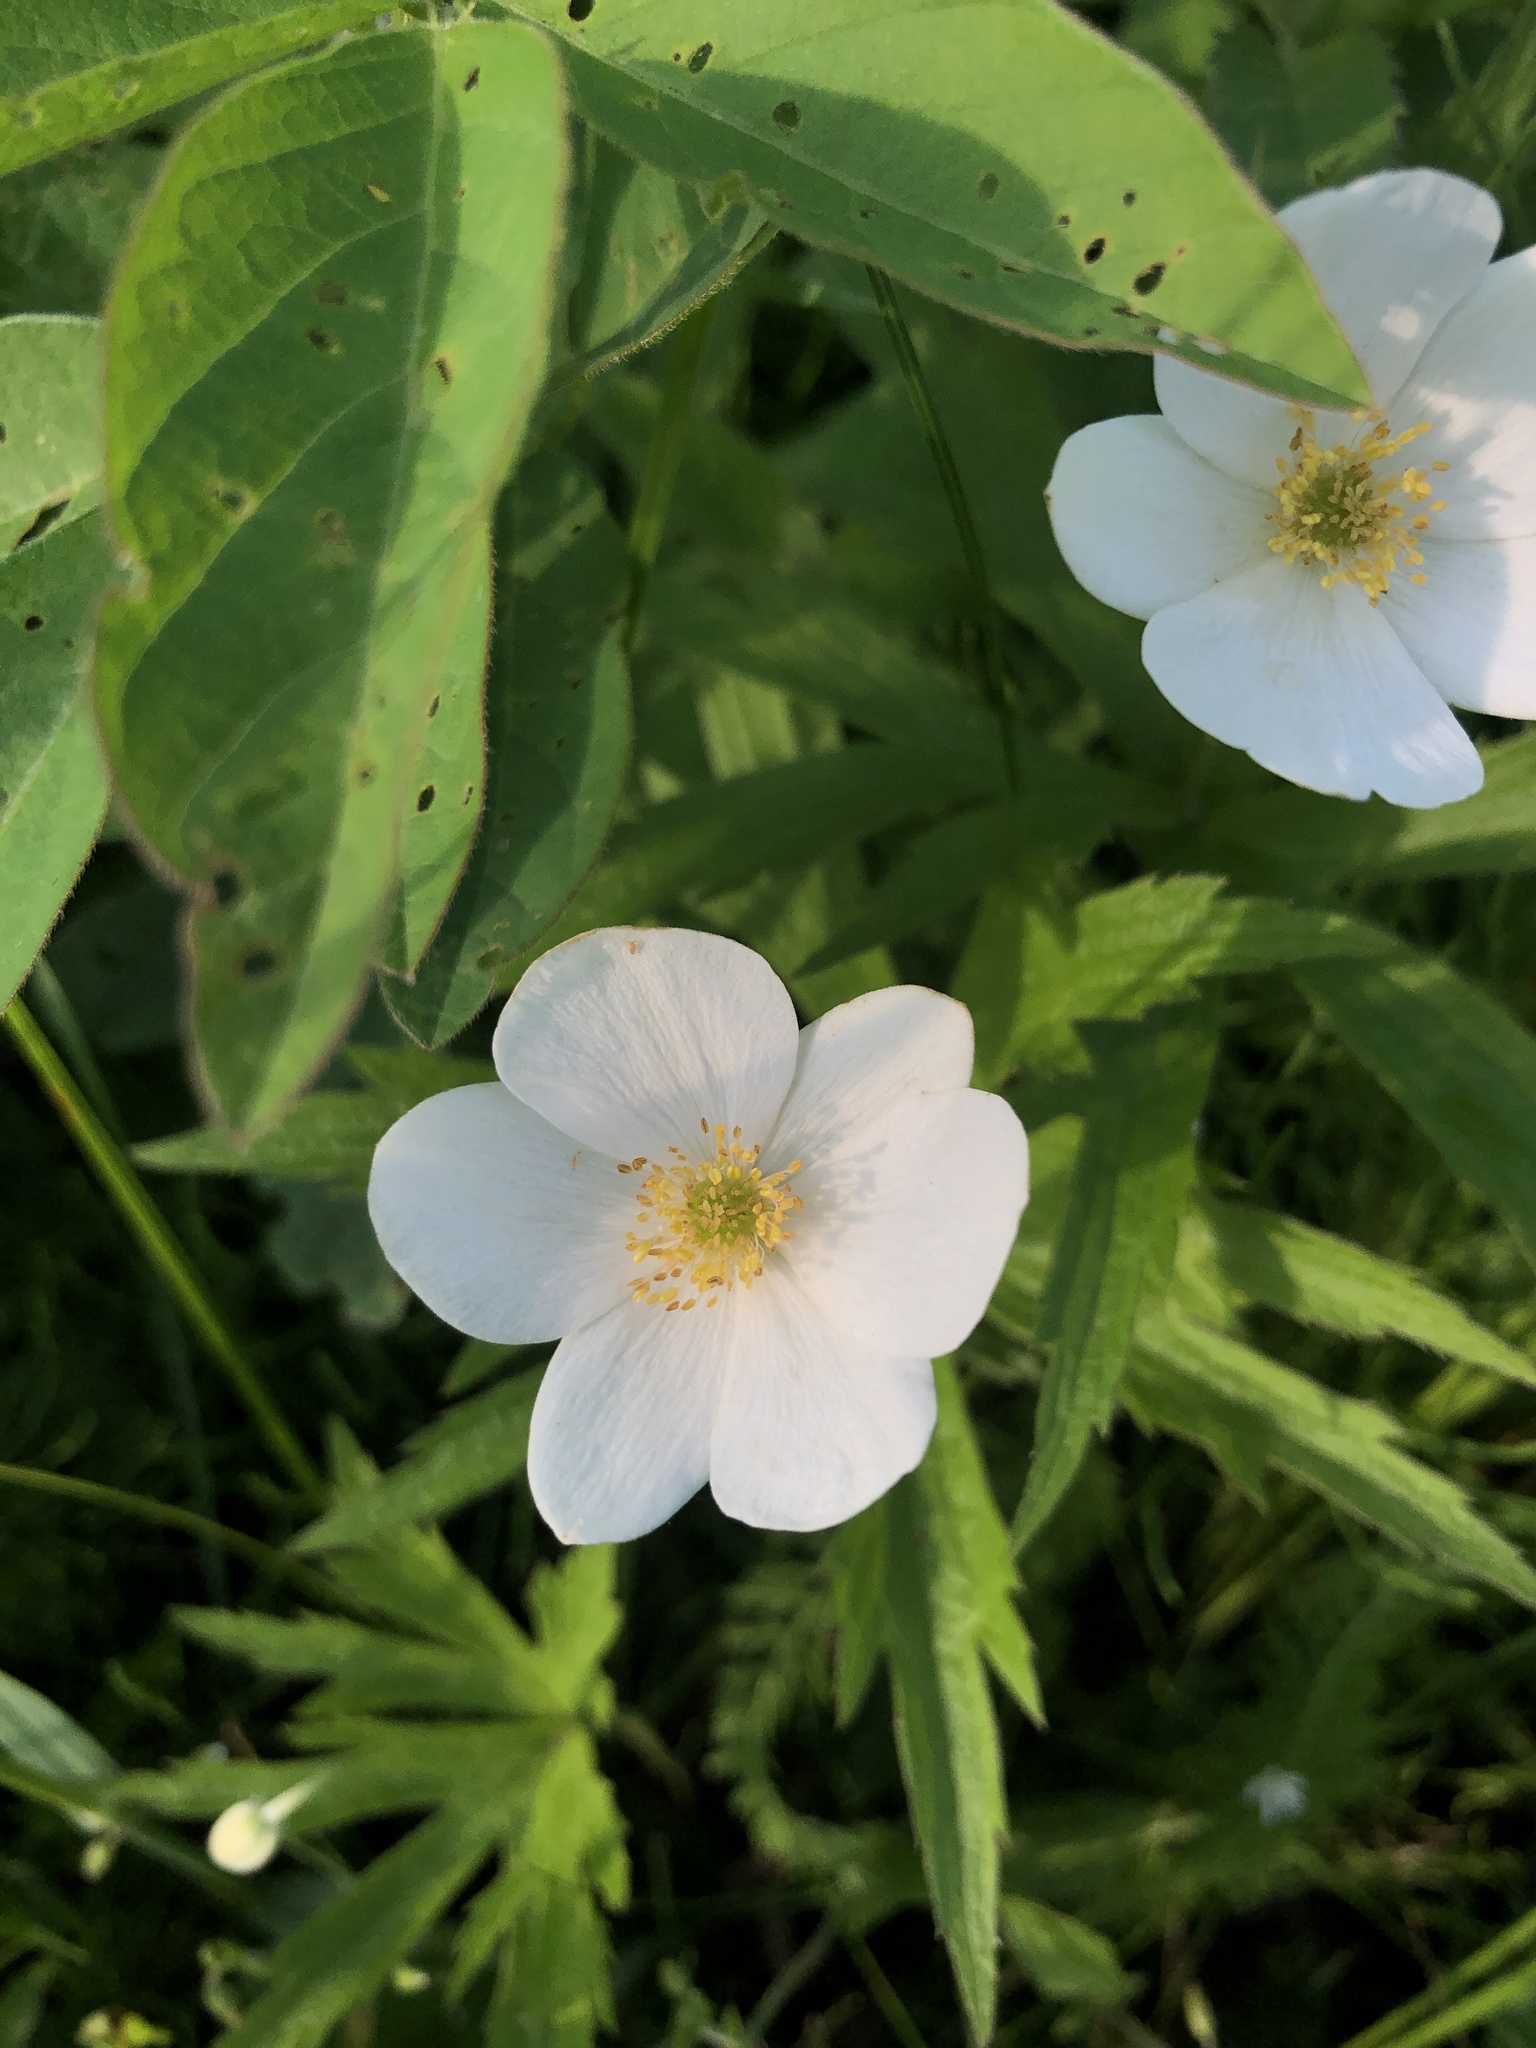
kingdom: Plantae
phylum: Tracheophyta
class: Magnoliopsida
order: Ranunculales
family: Ranunculaceae
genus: Anemonastrum
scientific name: Anemonastrum canadense
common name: Canada anemone
